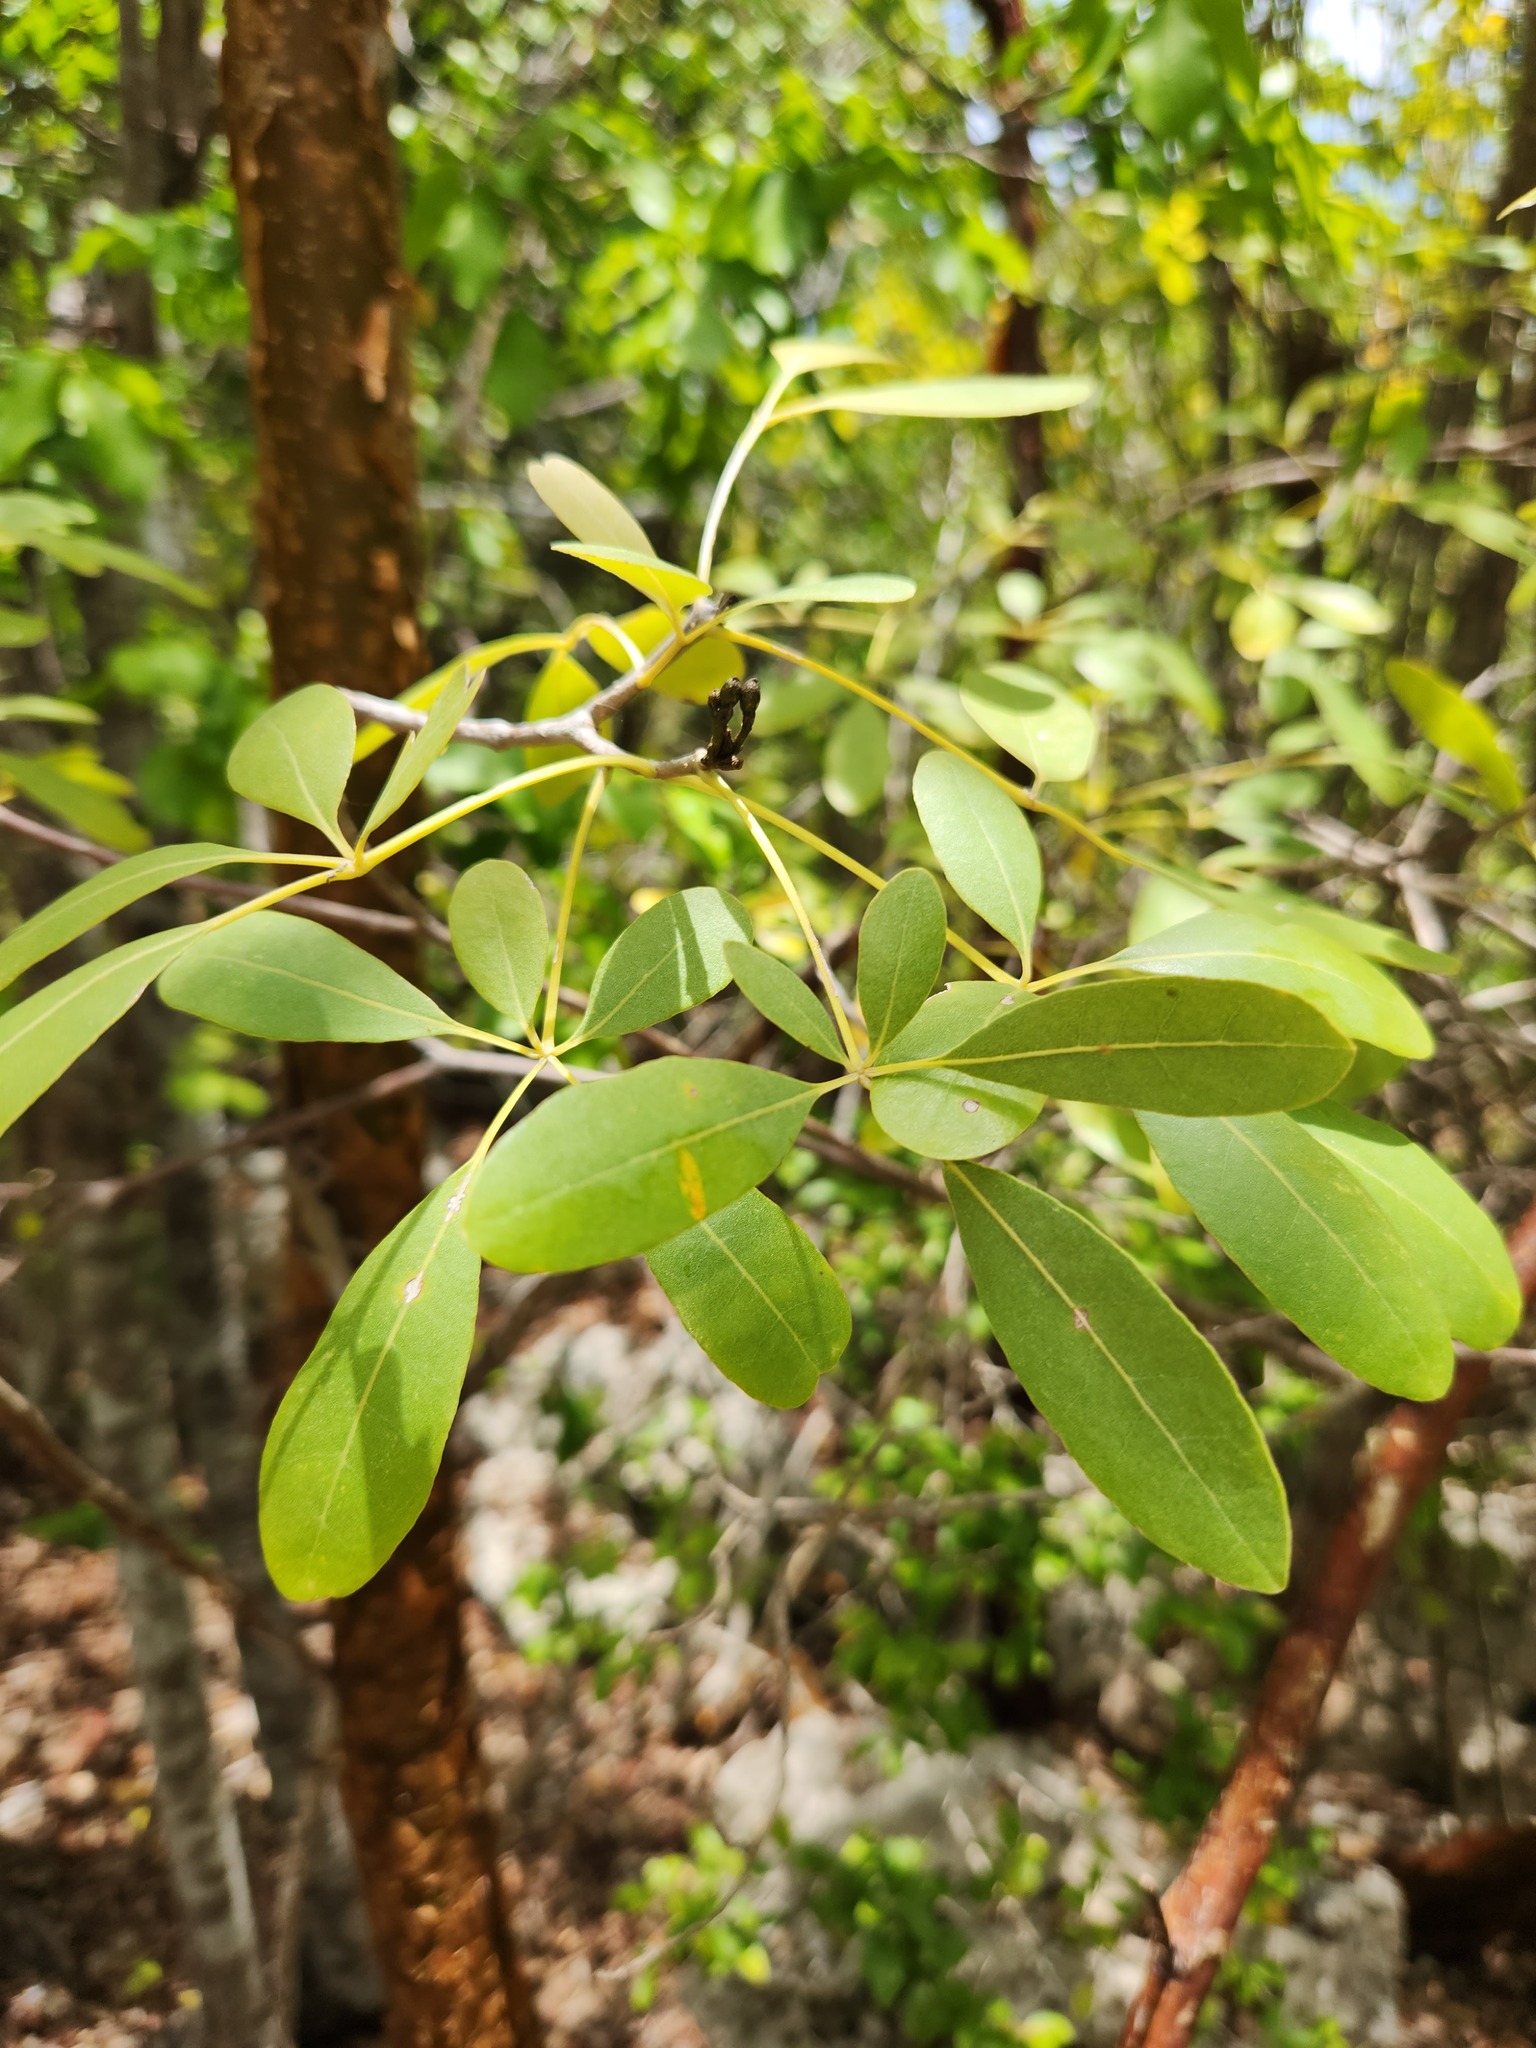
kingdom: Plantae
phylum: Tracheophyta
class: Magnoliopsida
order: Lamiales
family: Bignoniaceae
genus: Tabebuia
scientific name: Tabebuia heterophylla
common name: White cedar
